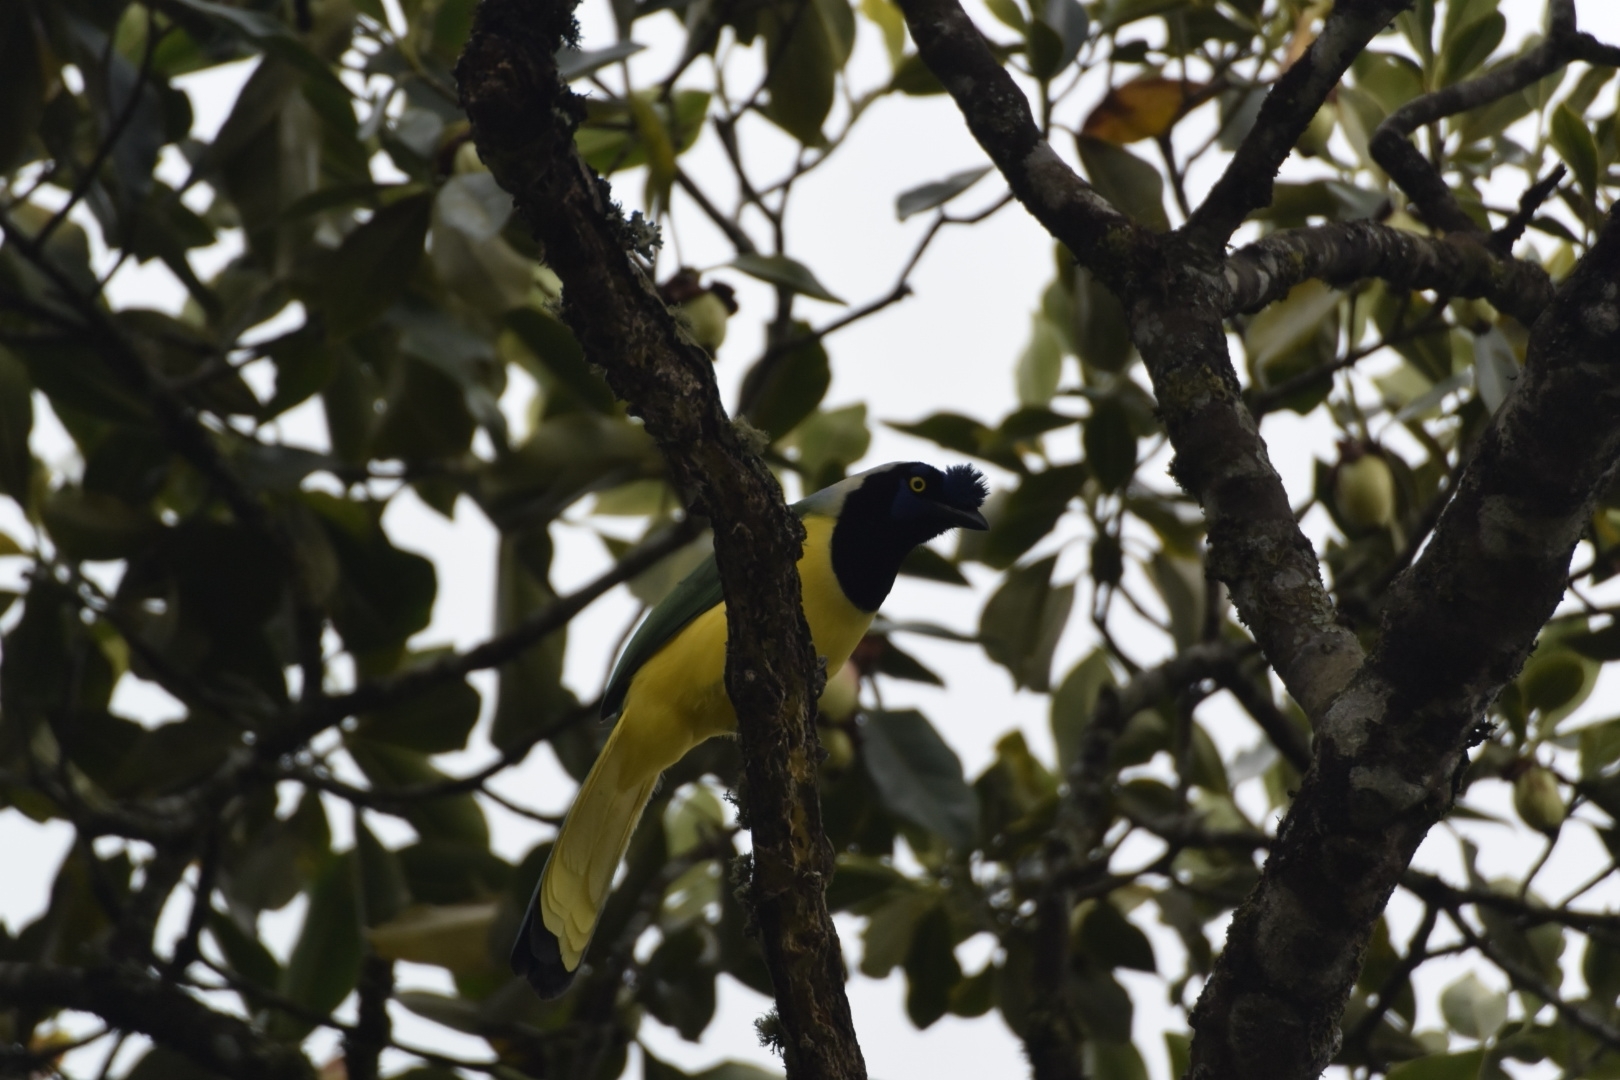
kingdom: Animalia
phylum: Chordata
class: Aves
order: Passeriformes
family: Corvidae
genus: Cyanocorax
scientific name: Cyanocorax yncas
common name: Green jay
